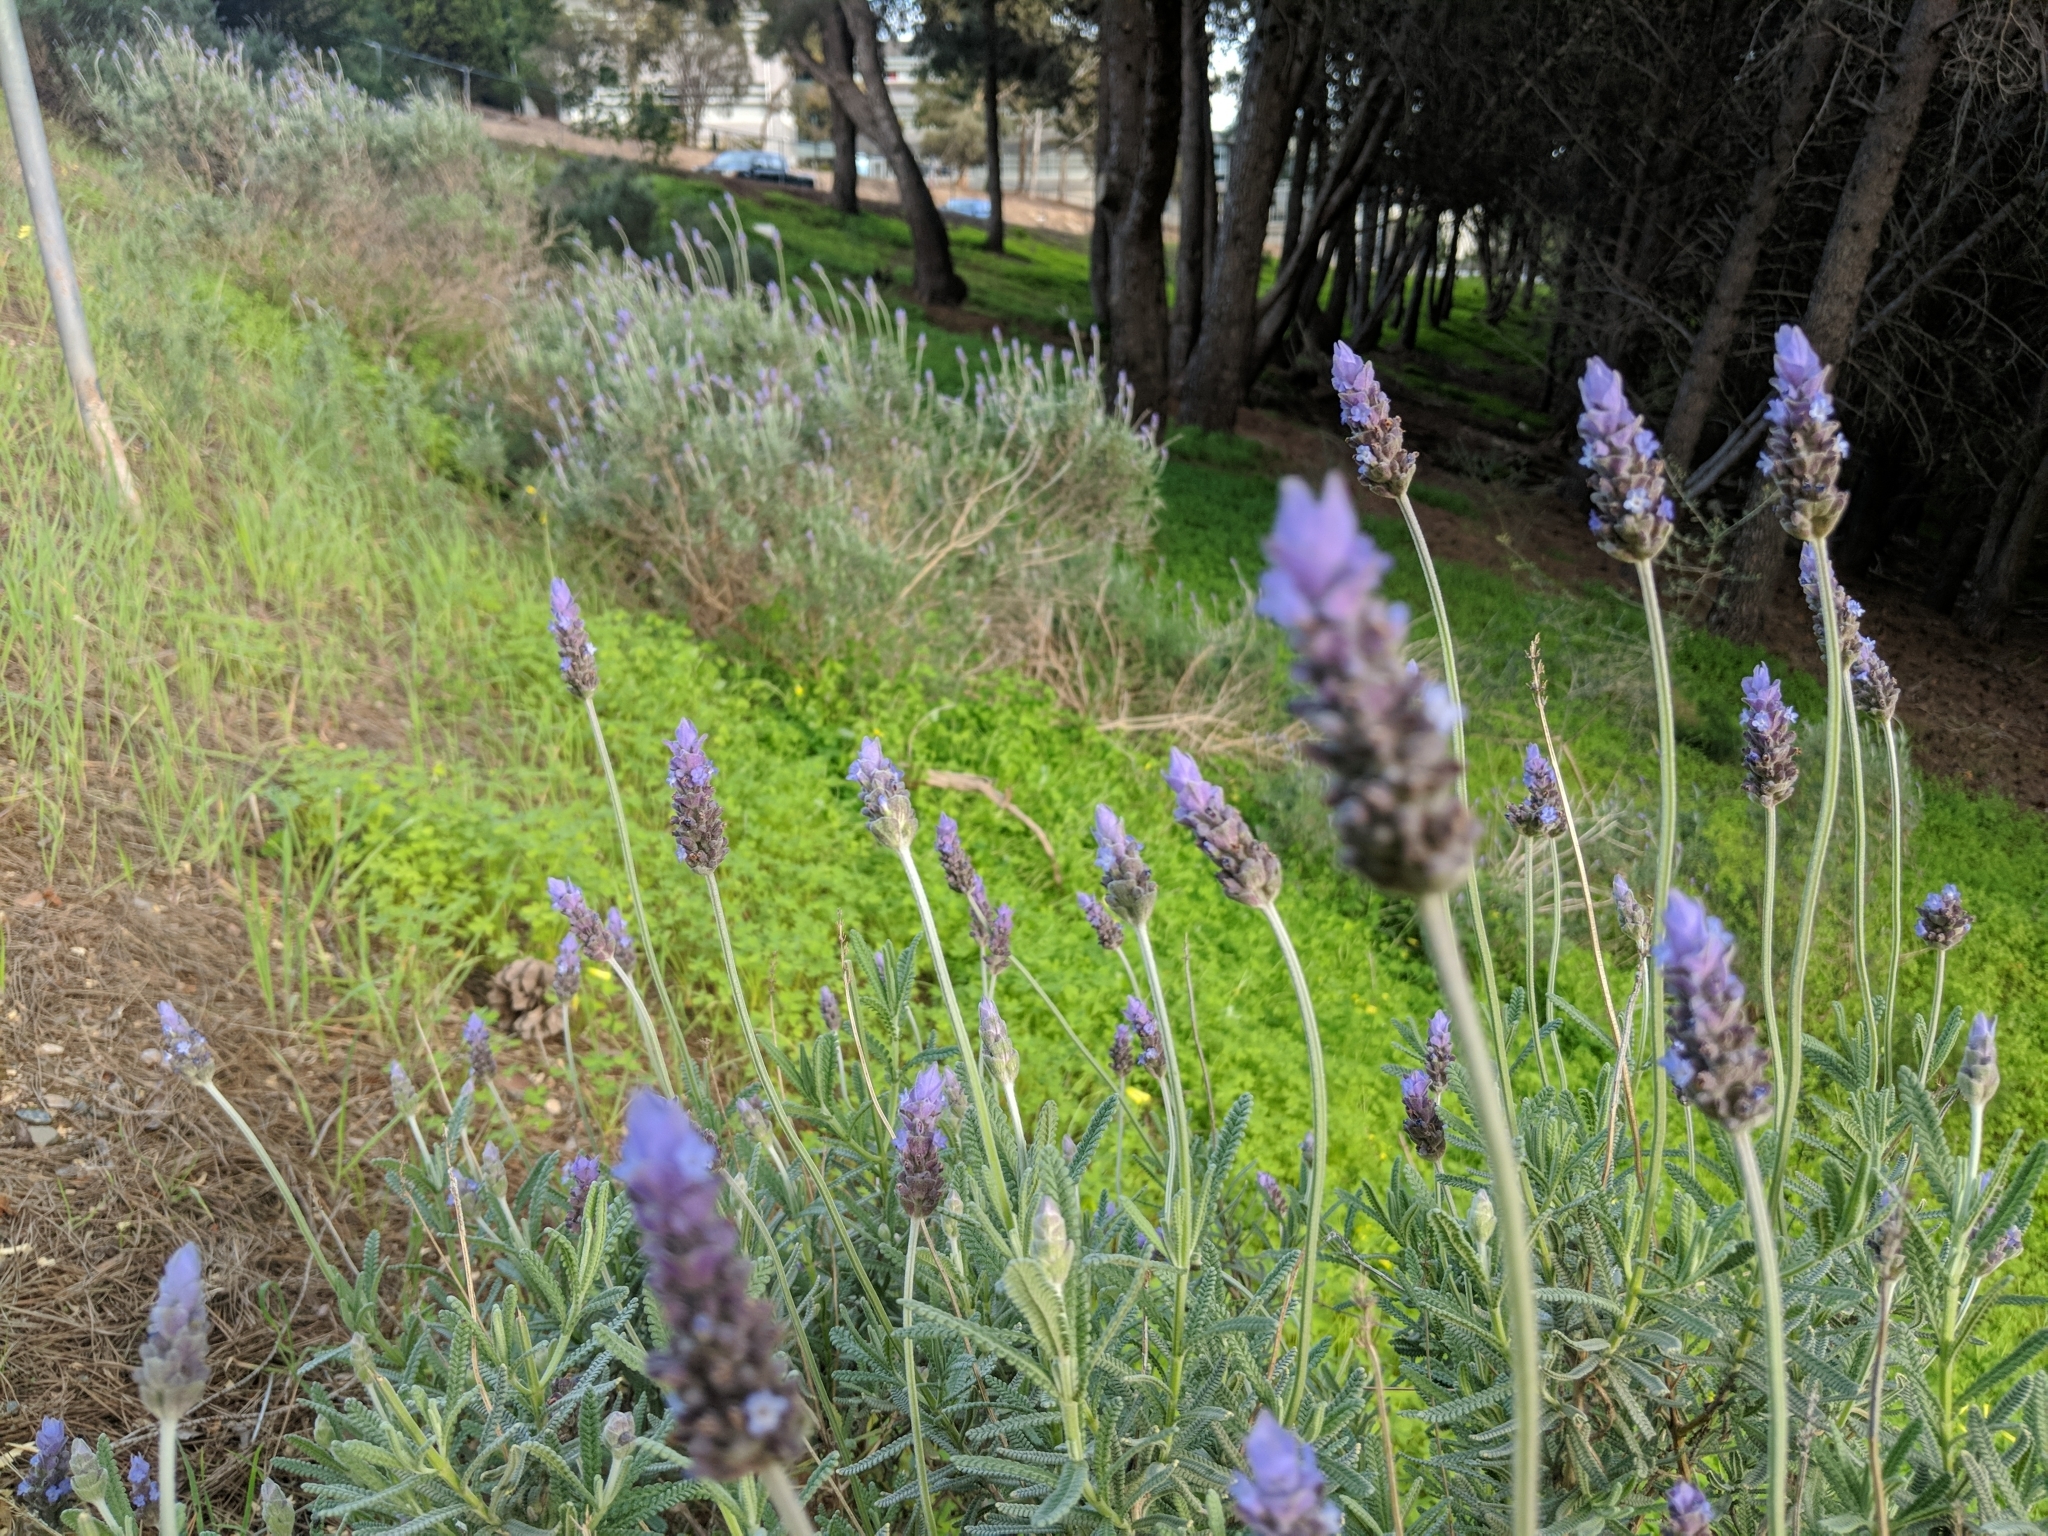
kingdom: Plantae
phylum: Tracheophyta
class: Magnoliopsida
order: Lamiales
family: Lamiaceae
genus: Lavandula
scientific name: Lavandula dentata
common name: French lavender
